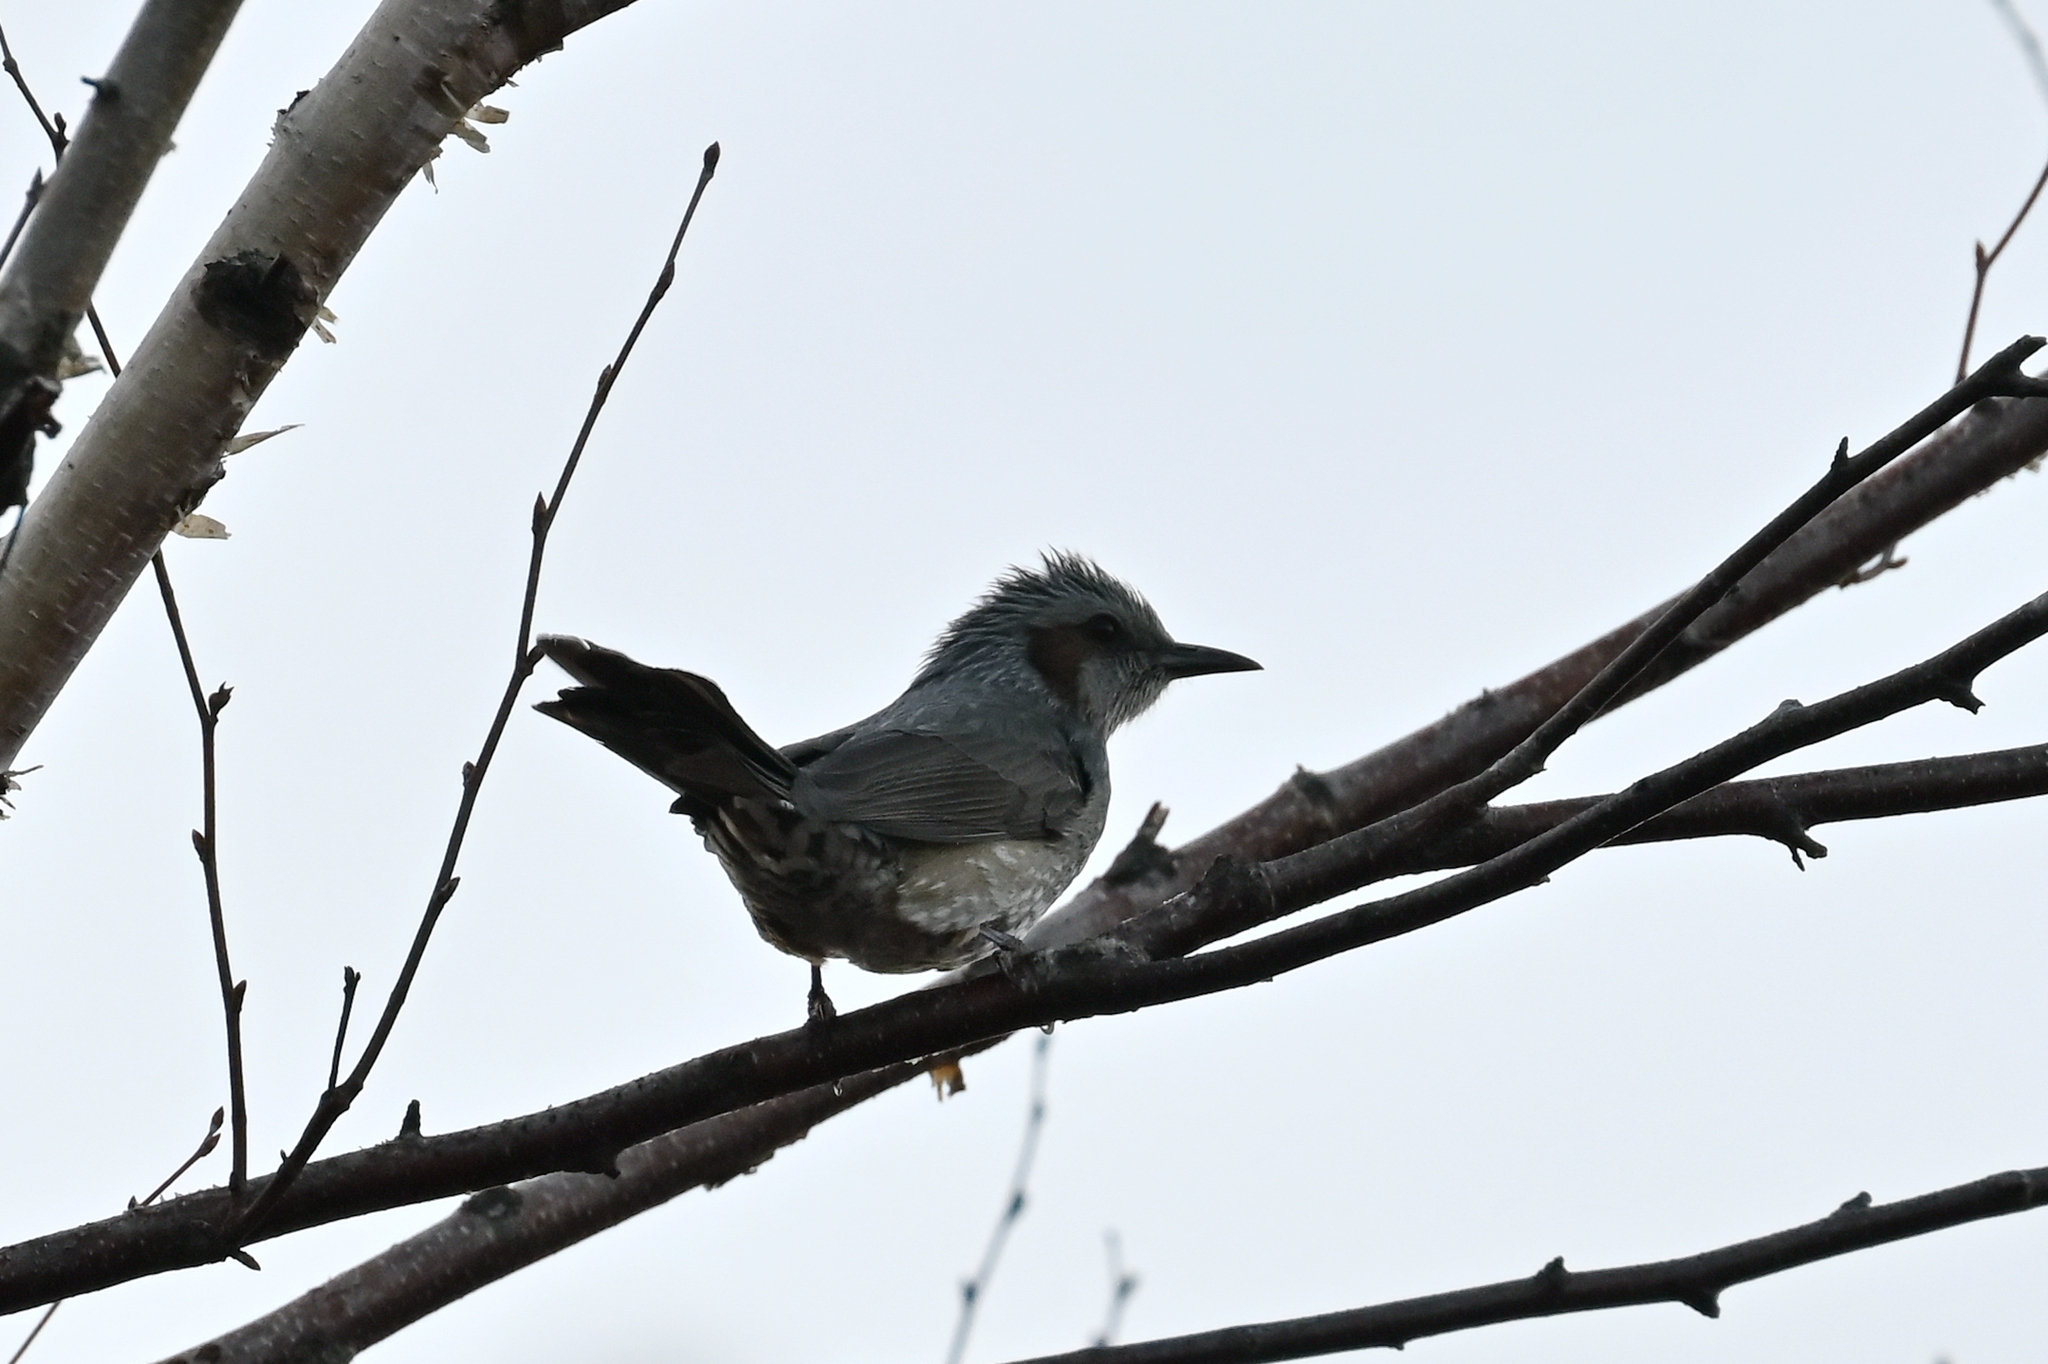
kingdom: Animalia
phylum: Chordata
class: Aves
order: Passeriformes
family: Pycnonotidae
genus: Hypsipetes
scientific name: Hypsipetes amaurotis
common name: Brown-eared bulbul
